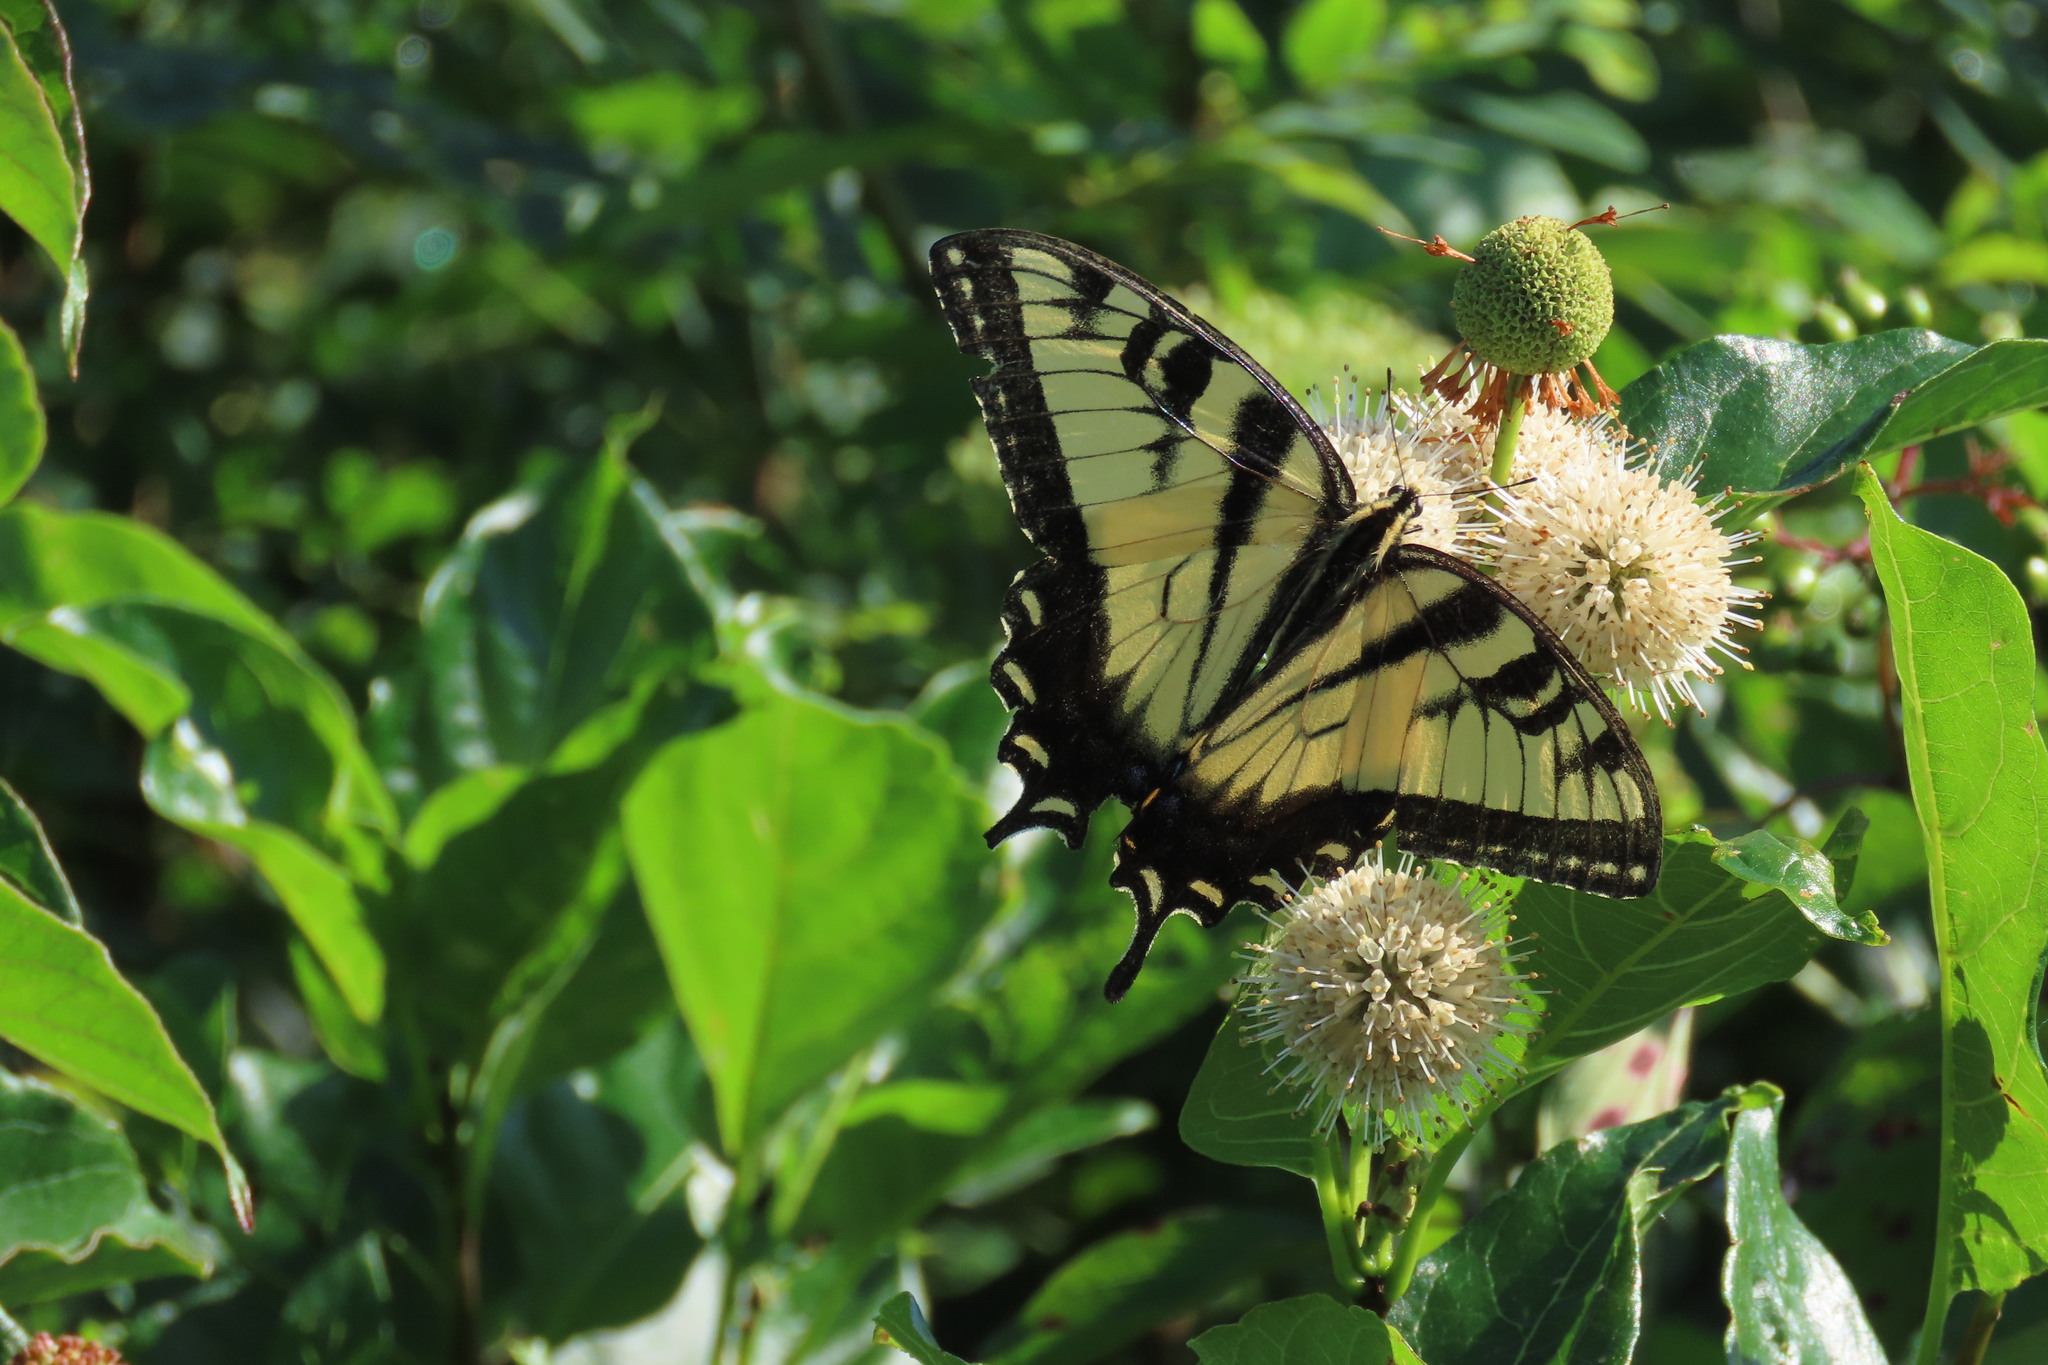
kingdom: Animalia
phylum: Arthropoda
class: Insecta
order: Lepidoptera
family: Papilionidae
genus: Papilio
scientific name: Papilio glaucus
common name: Tiger swallowtail
